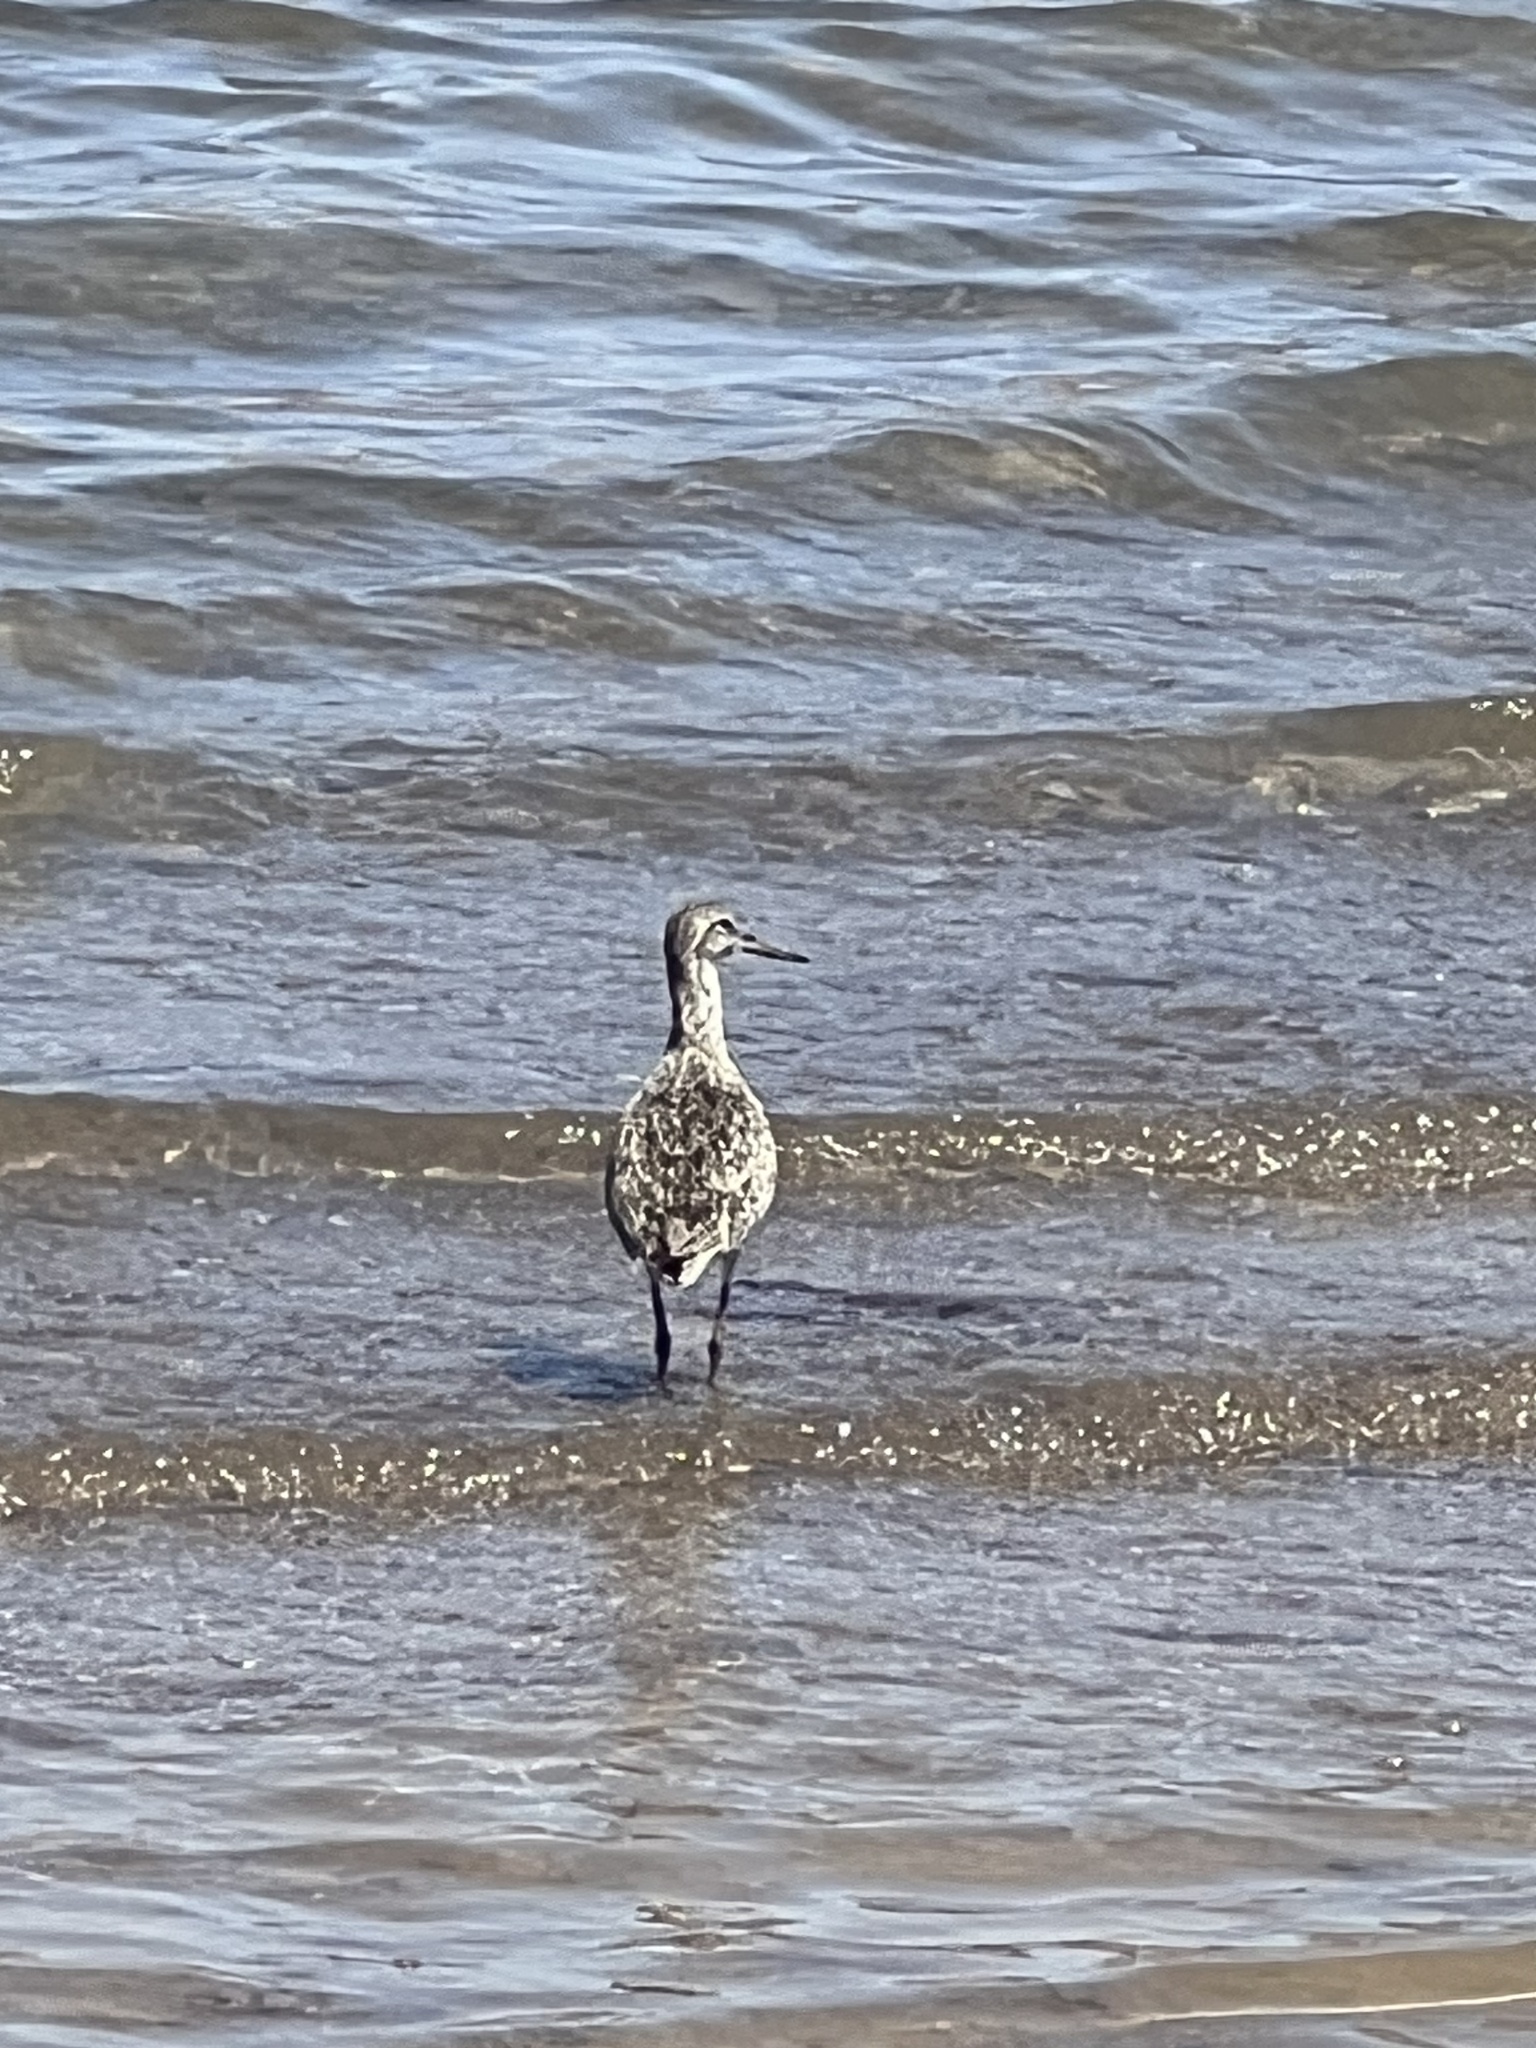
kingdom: Animalia
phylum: Chordata
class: Aves
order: Charadriiformes
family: Scolopacidae
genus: Tringa
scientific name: Tringa melanoleuca
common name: Greater yellowlegs
